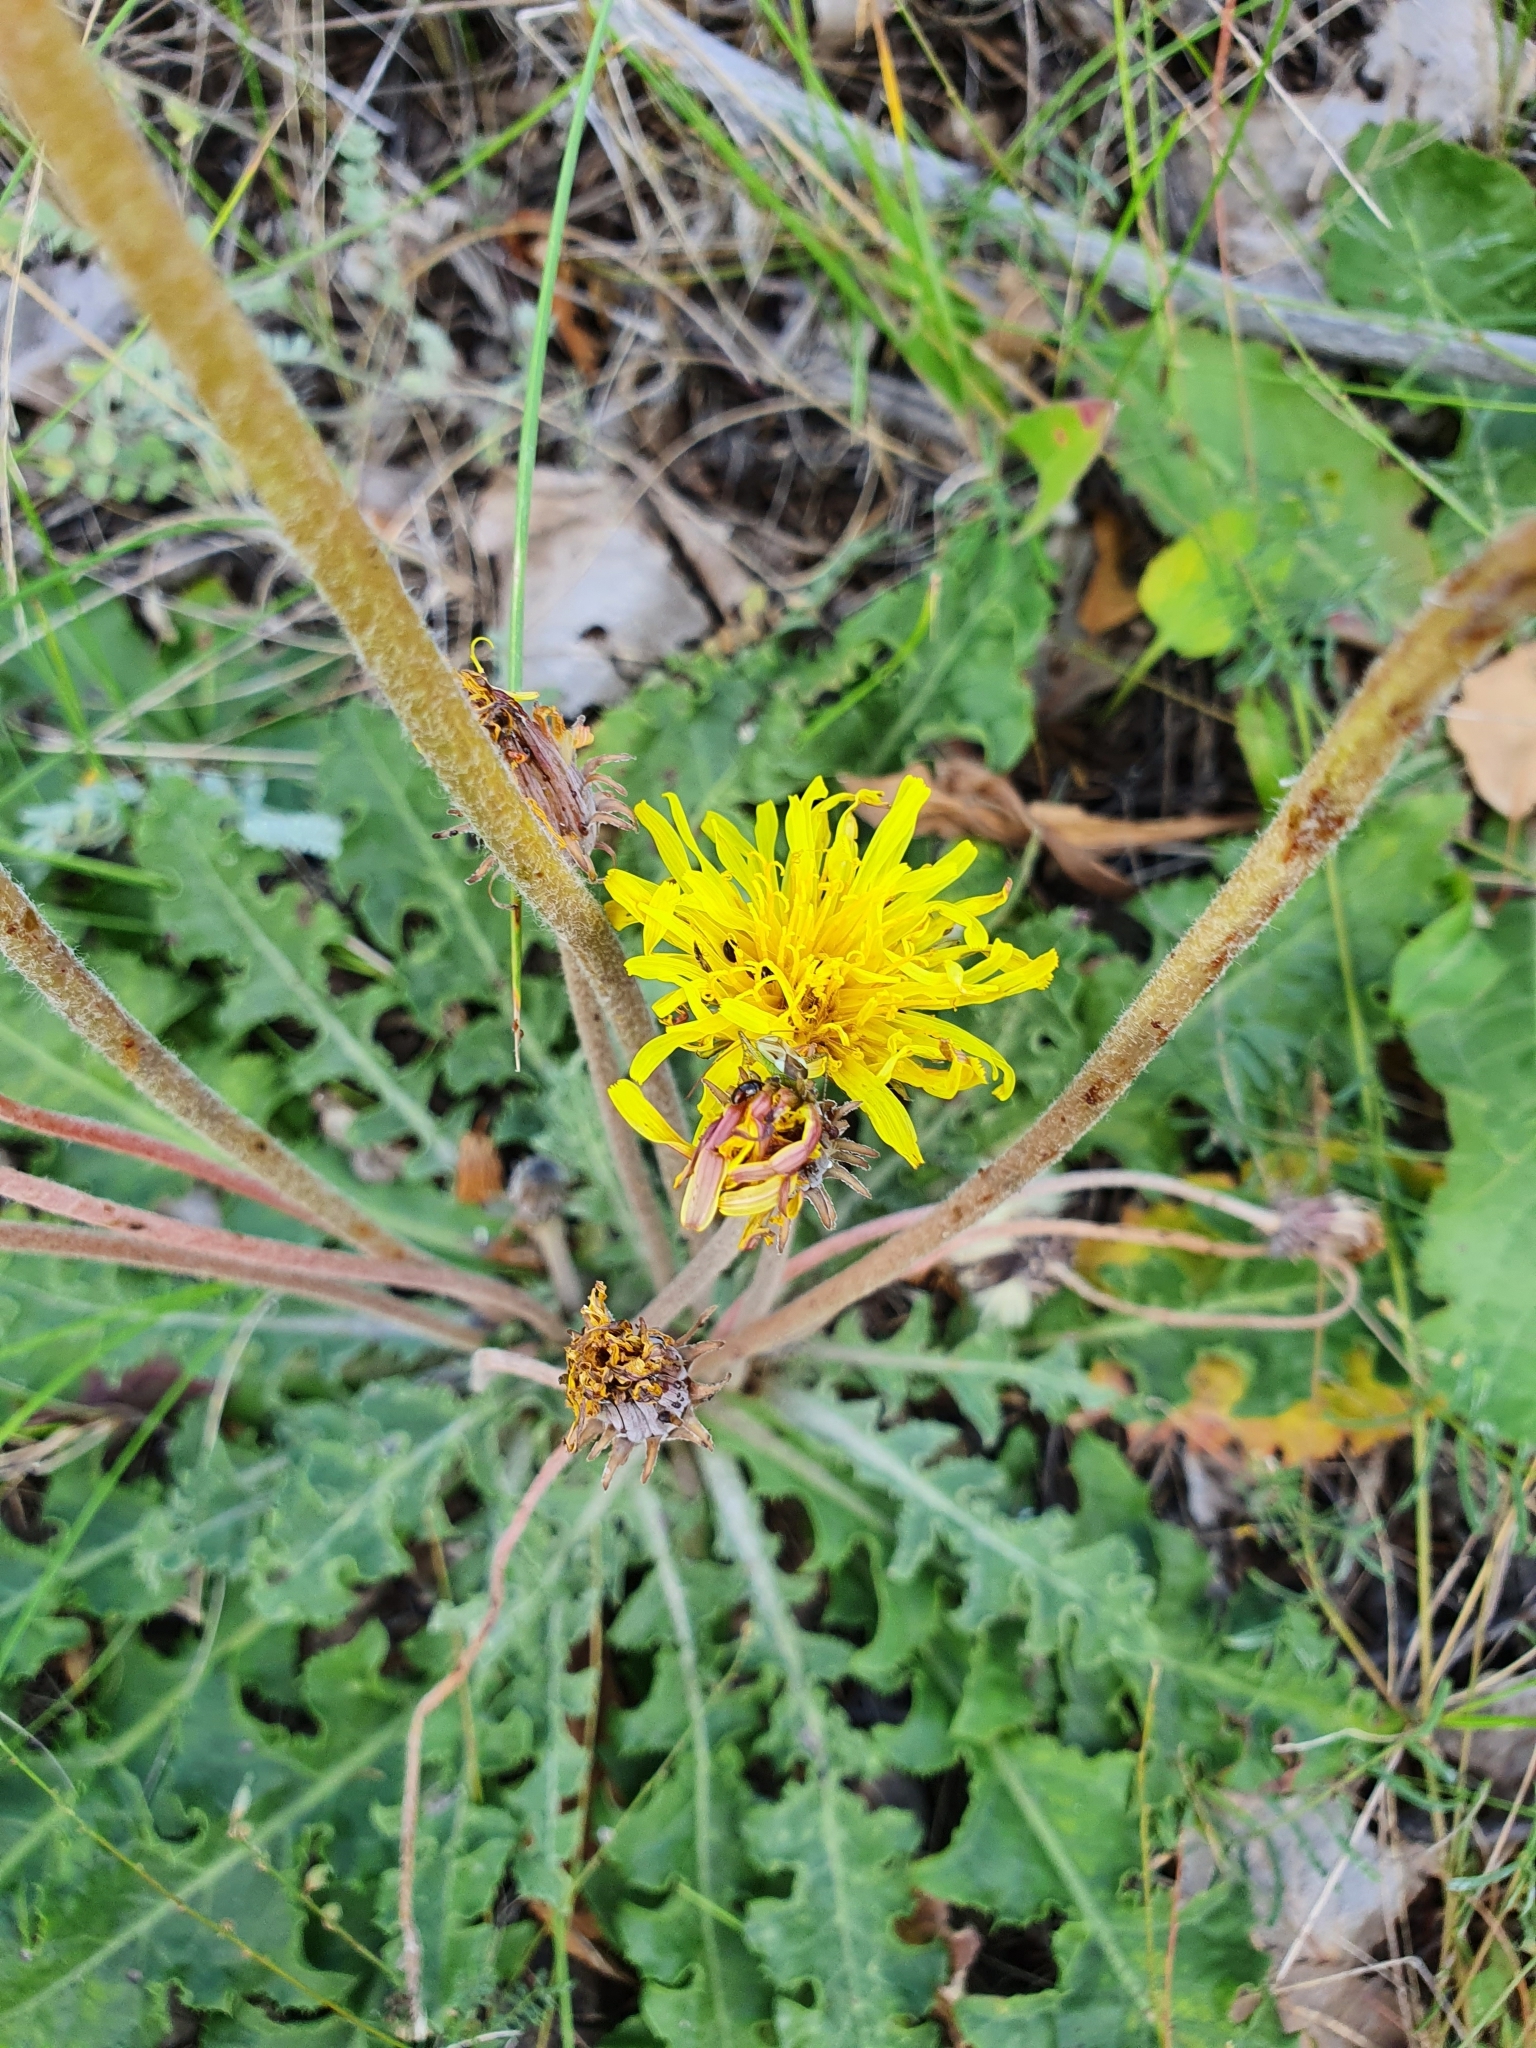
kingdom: Plantae
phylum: Tracheophyta
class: Magnoliopsida
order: Asterales
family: Asteraceae
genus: Taraxacum
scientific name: Taraxacum serotinum
